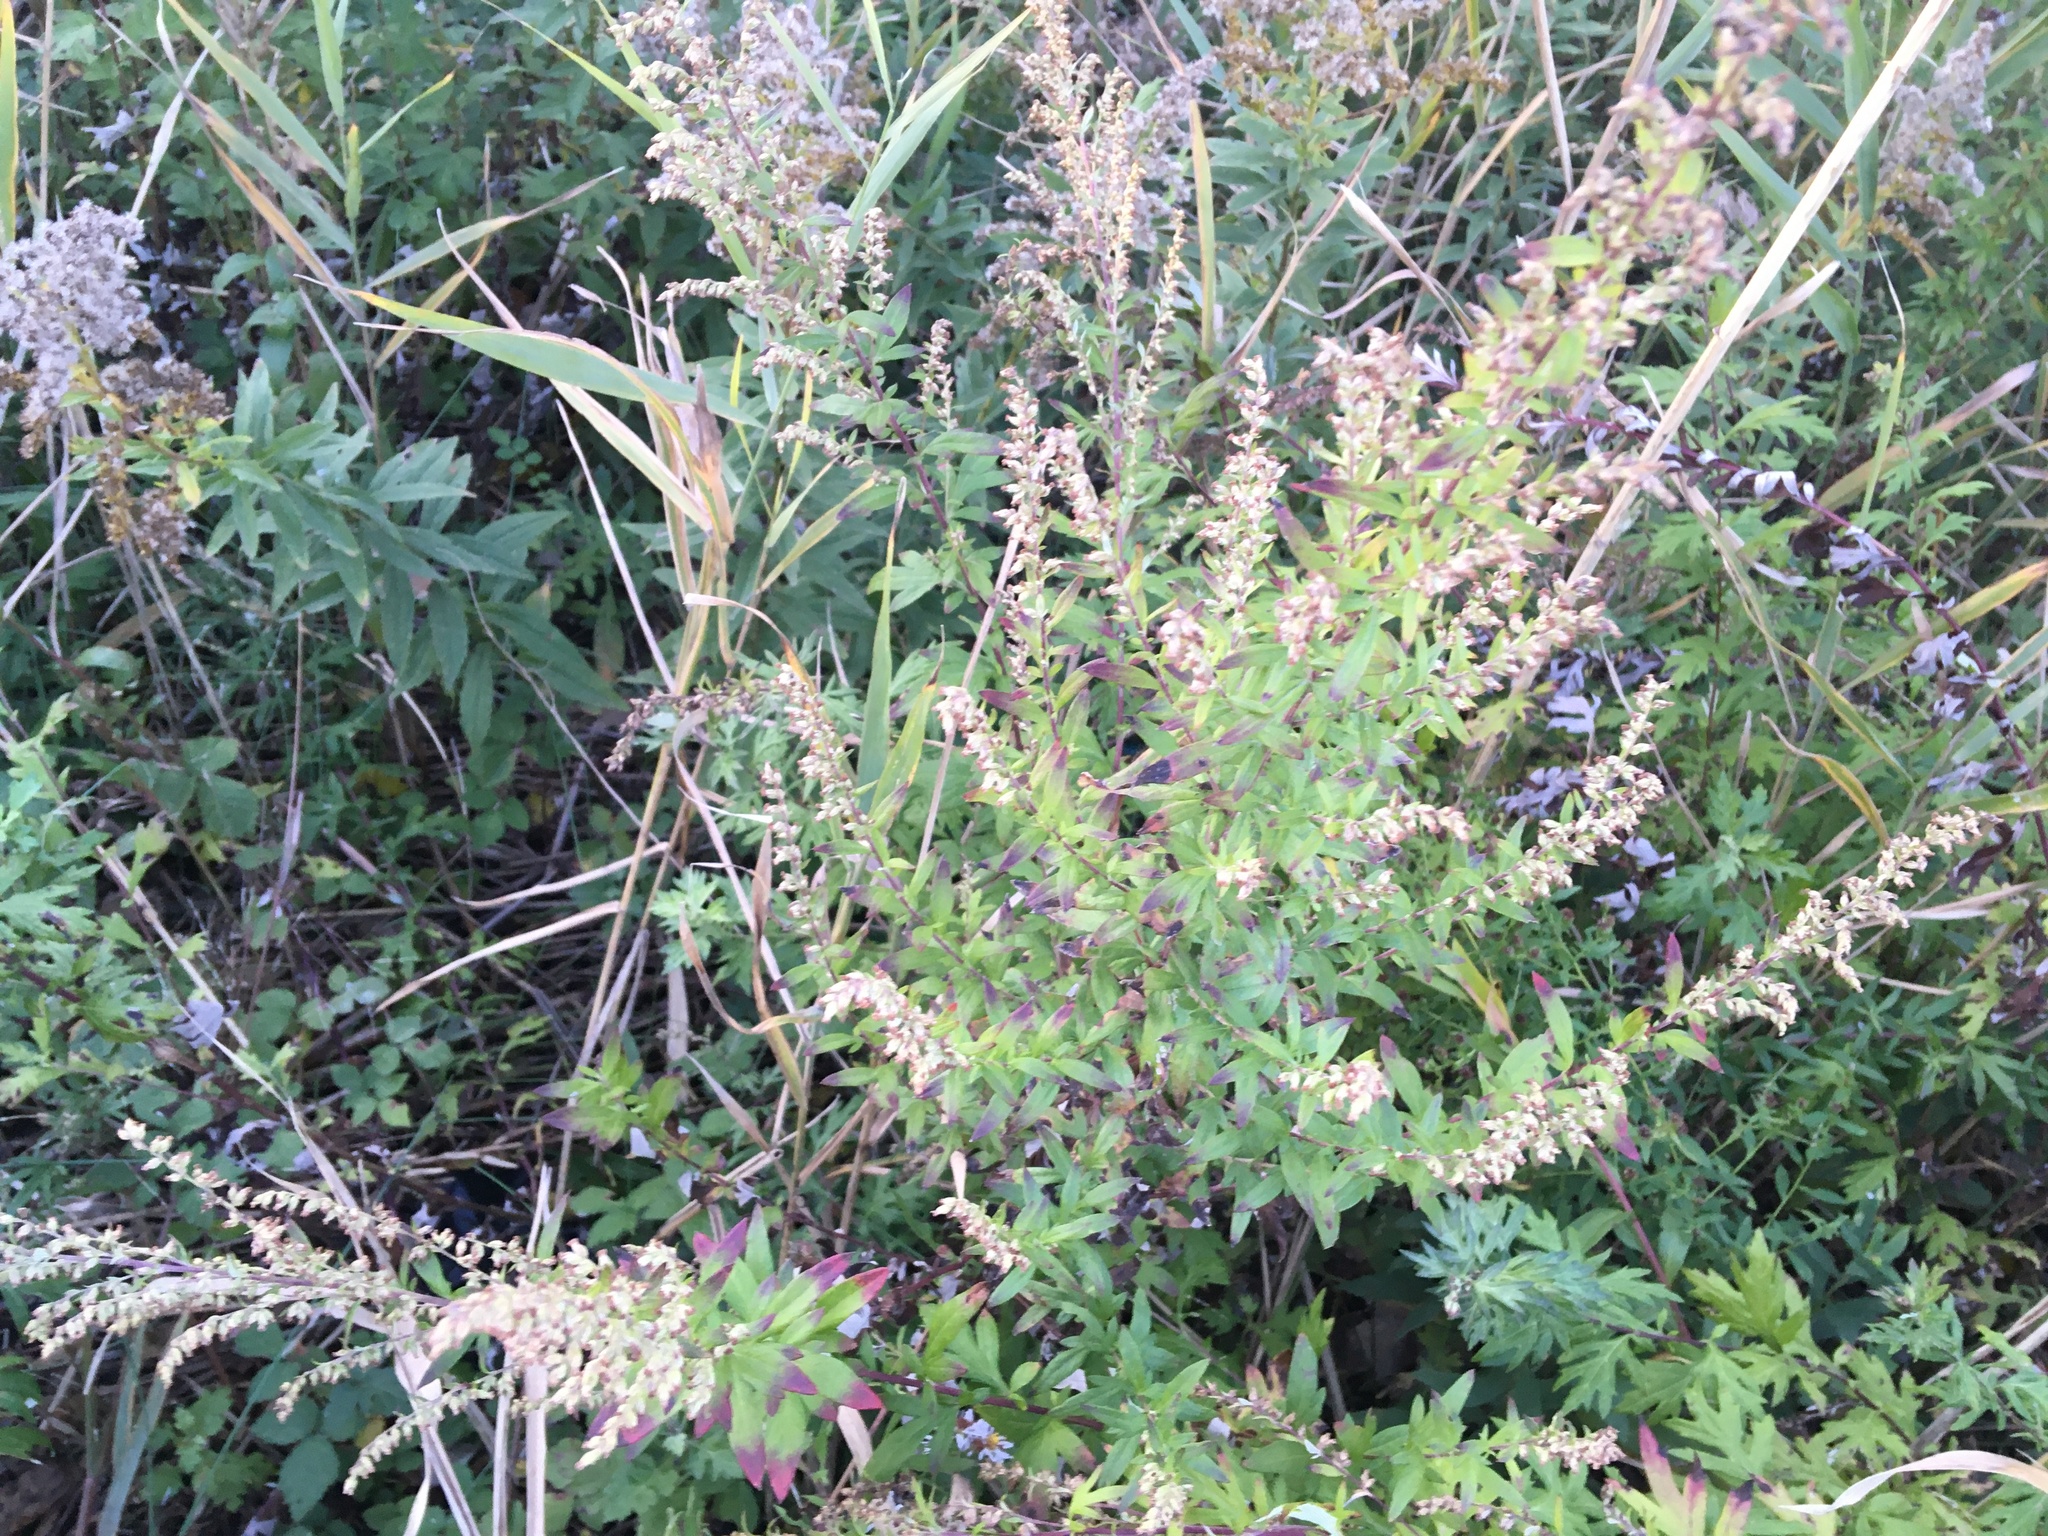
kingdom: Plantae
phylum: Tracheophyta
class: Magnoliopsida
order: Asterales
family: Asteraceae
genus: Artemisia
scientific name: Artemisia vulgaris
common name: Mugwort
